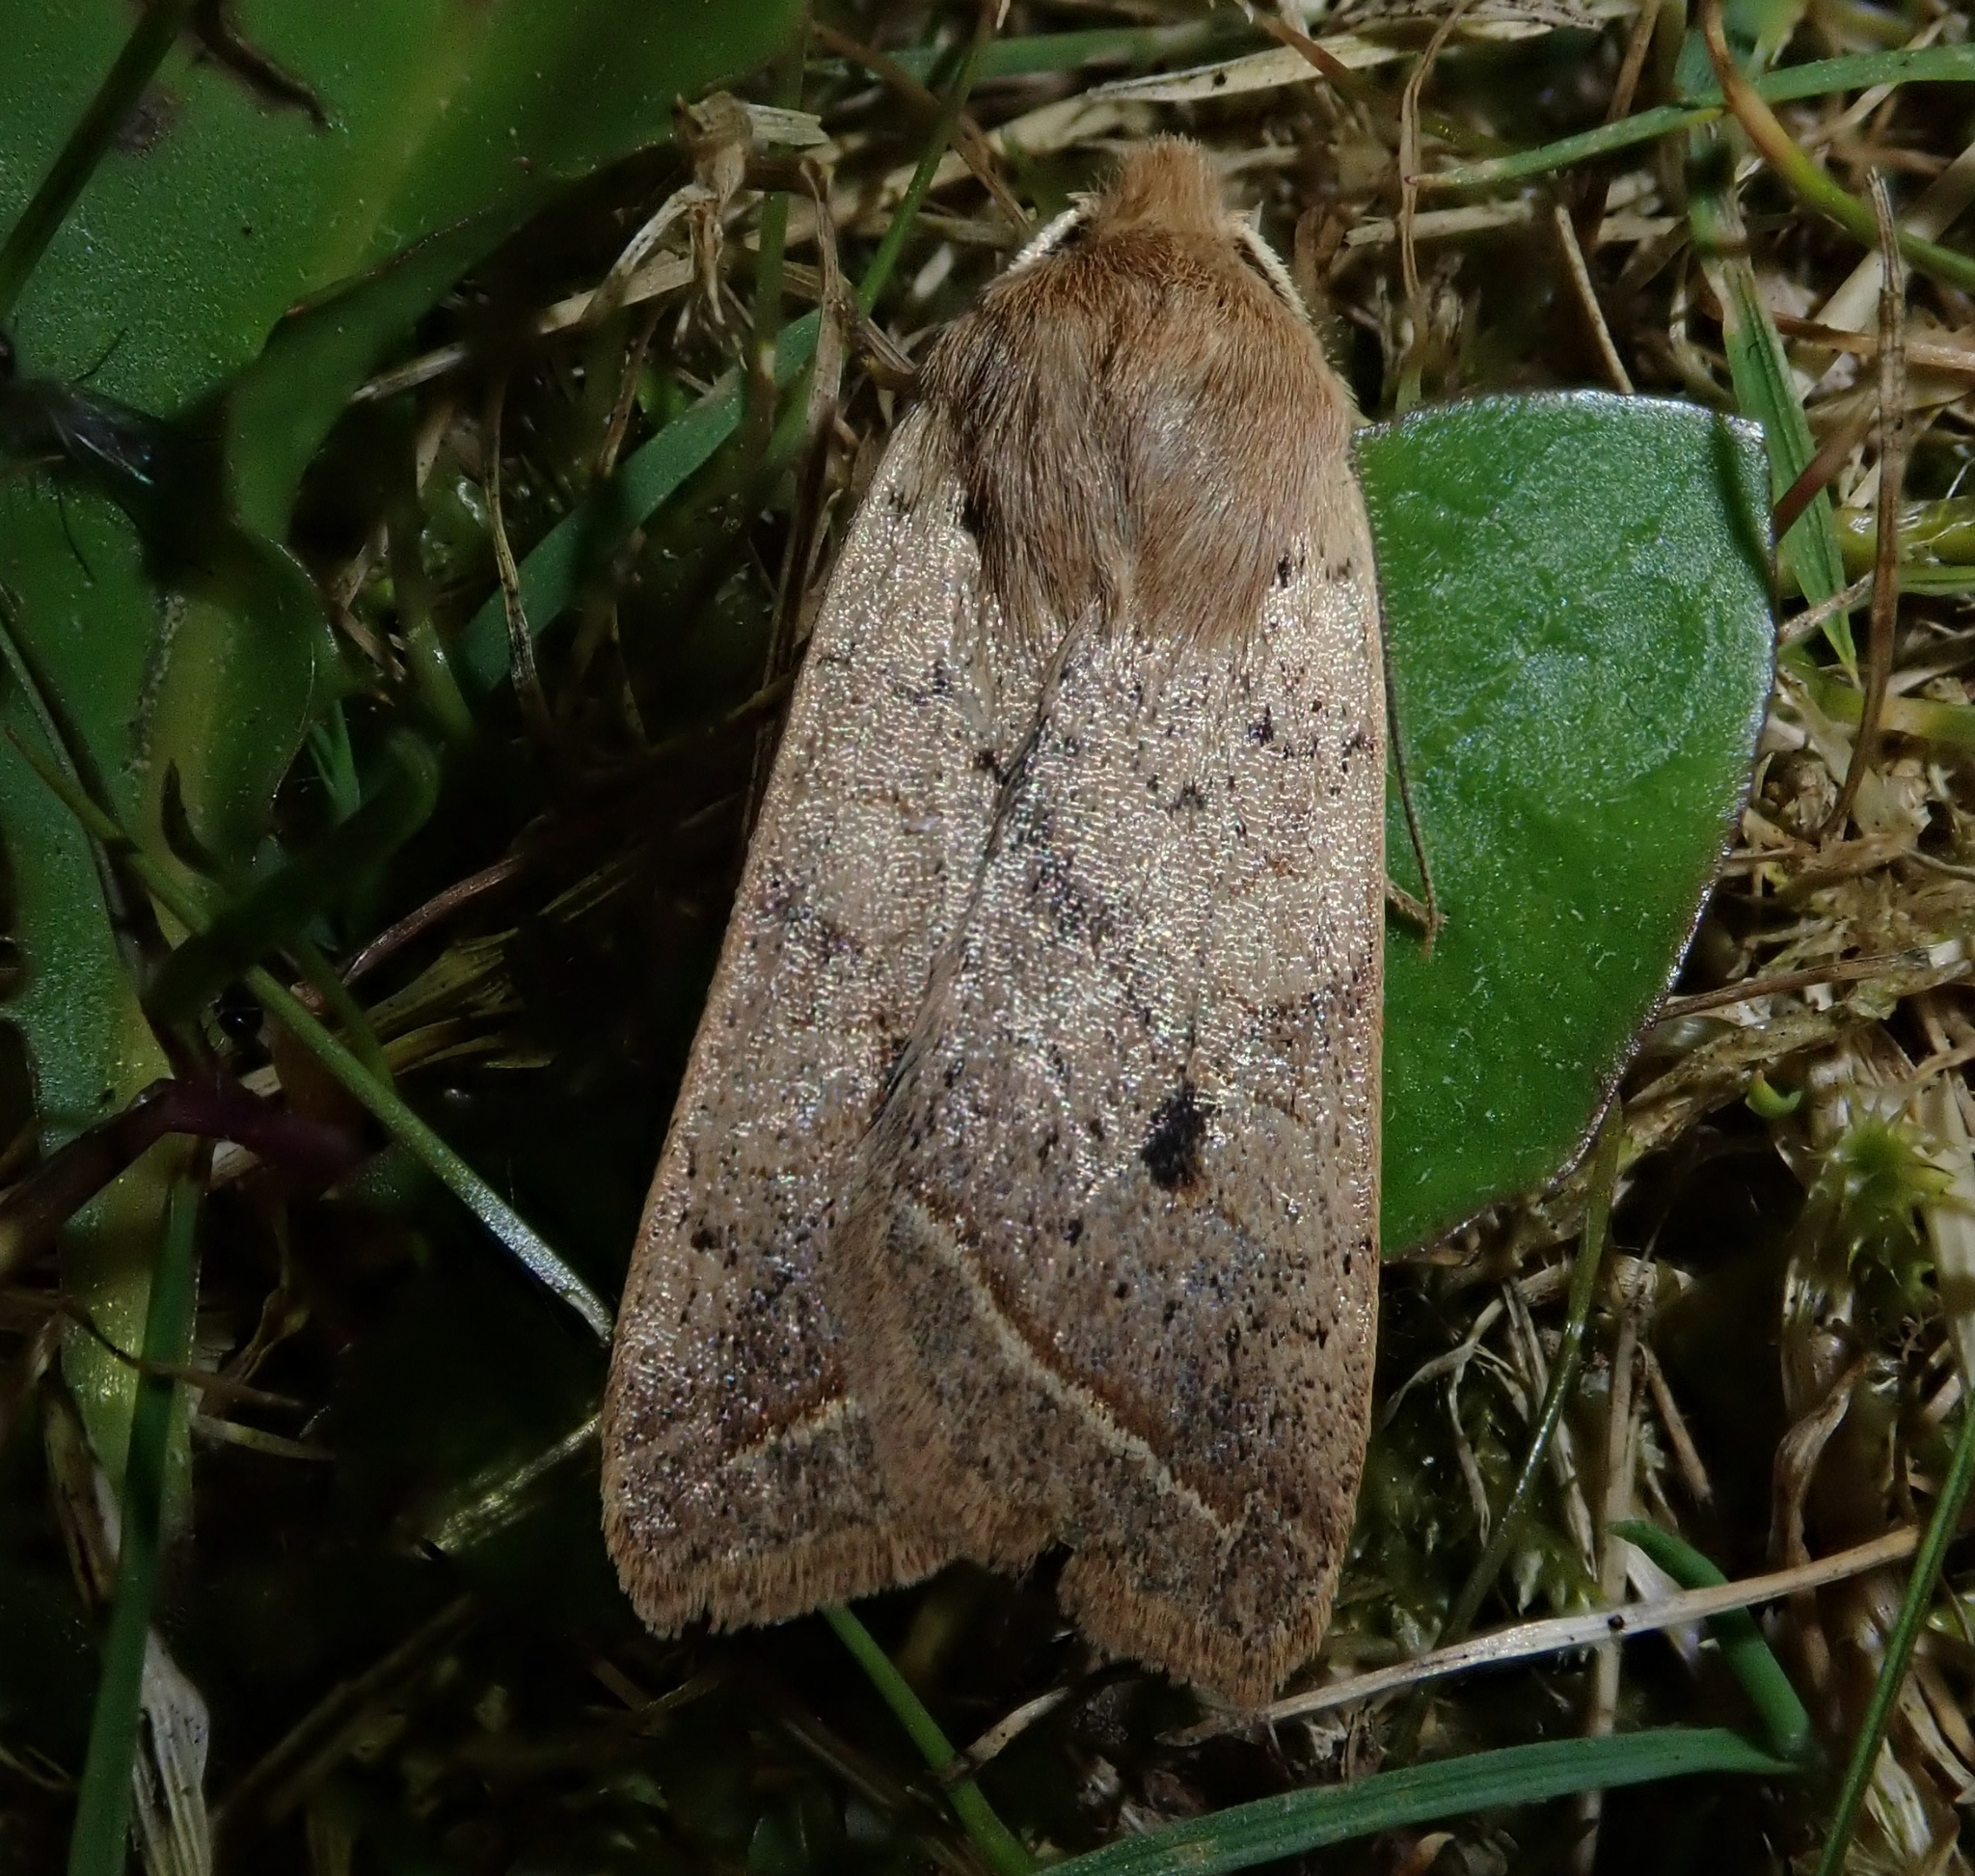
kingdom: Animalia
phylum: Arthropoda
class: Insecta
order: Lepidoptera
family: Noctuidae
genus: Agrochola
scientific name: Agrochola macilenta
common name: Yellow-line quaker
